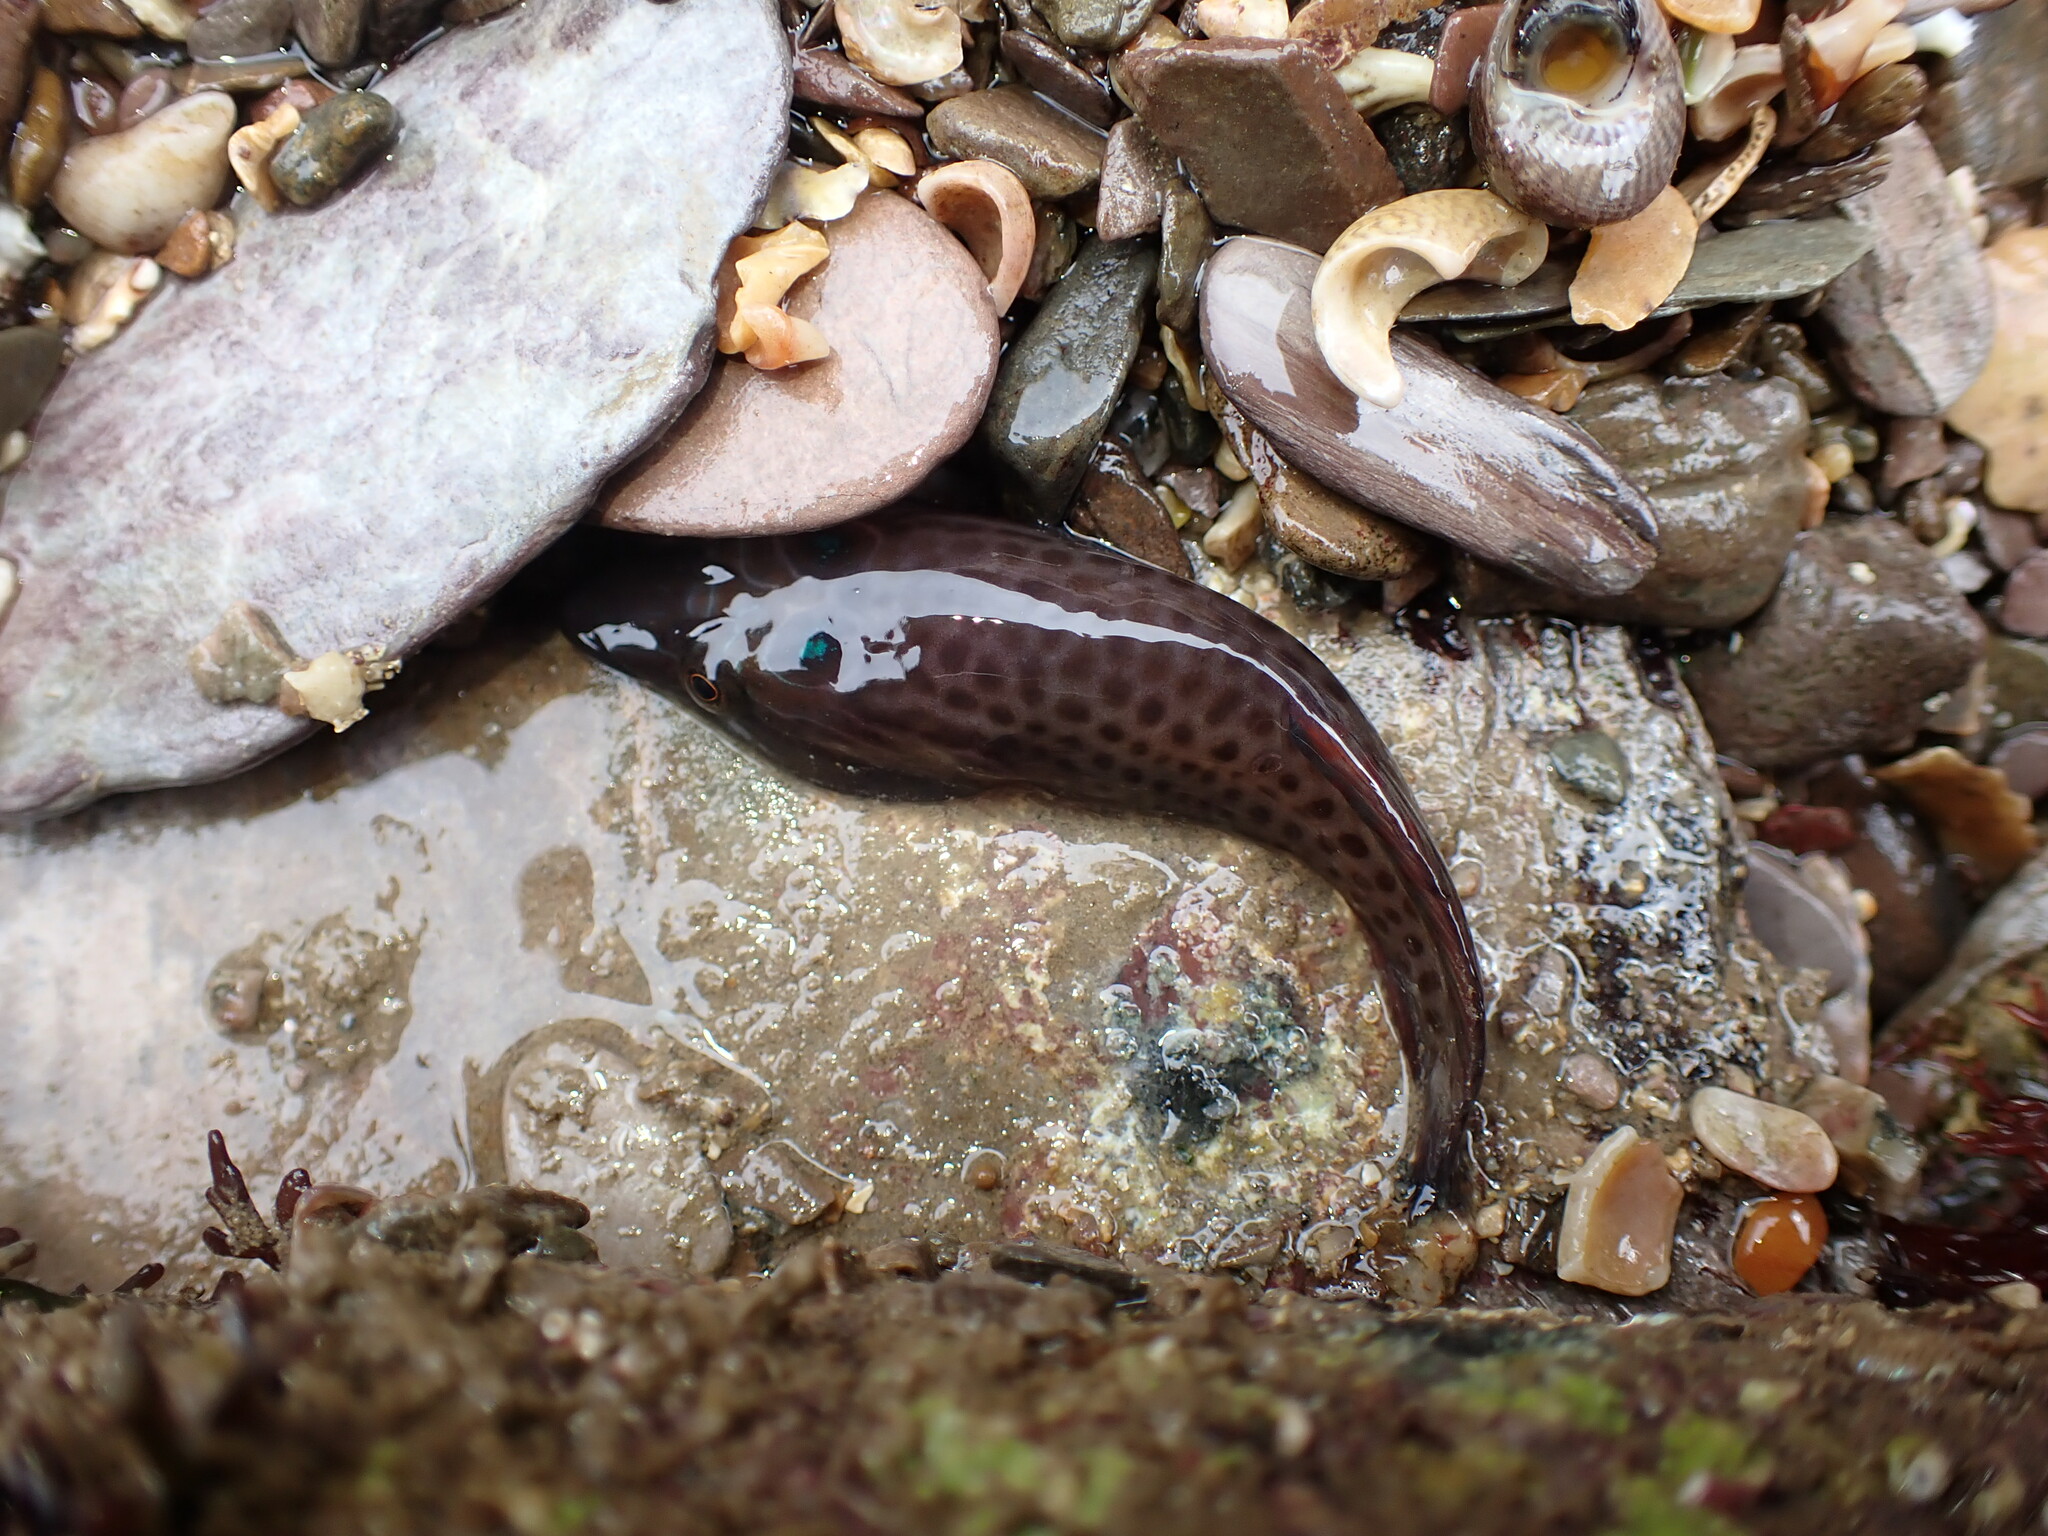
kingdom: Animalia
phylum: Chordata
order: Gobiesociformes
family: Gobiesocidae
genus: Lepadogaster
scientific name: Lepadogaster purpurea
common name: Cornish sucker
